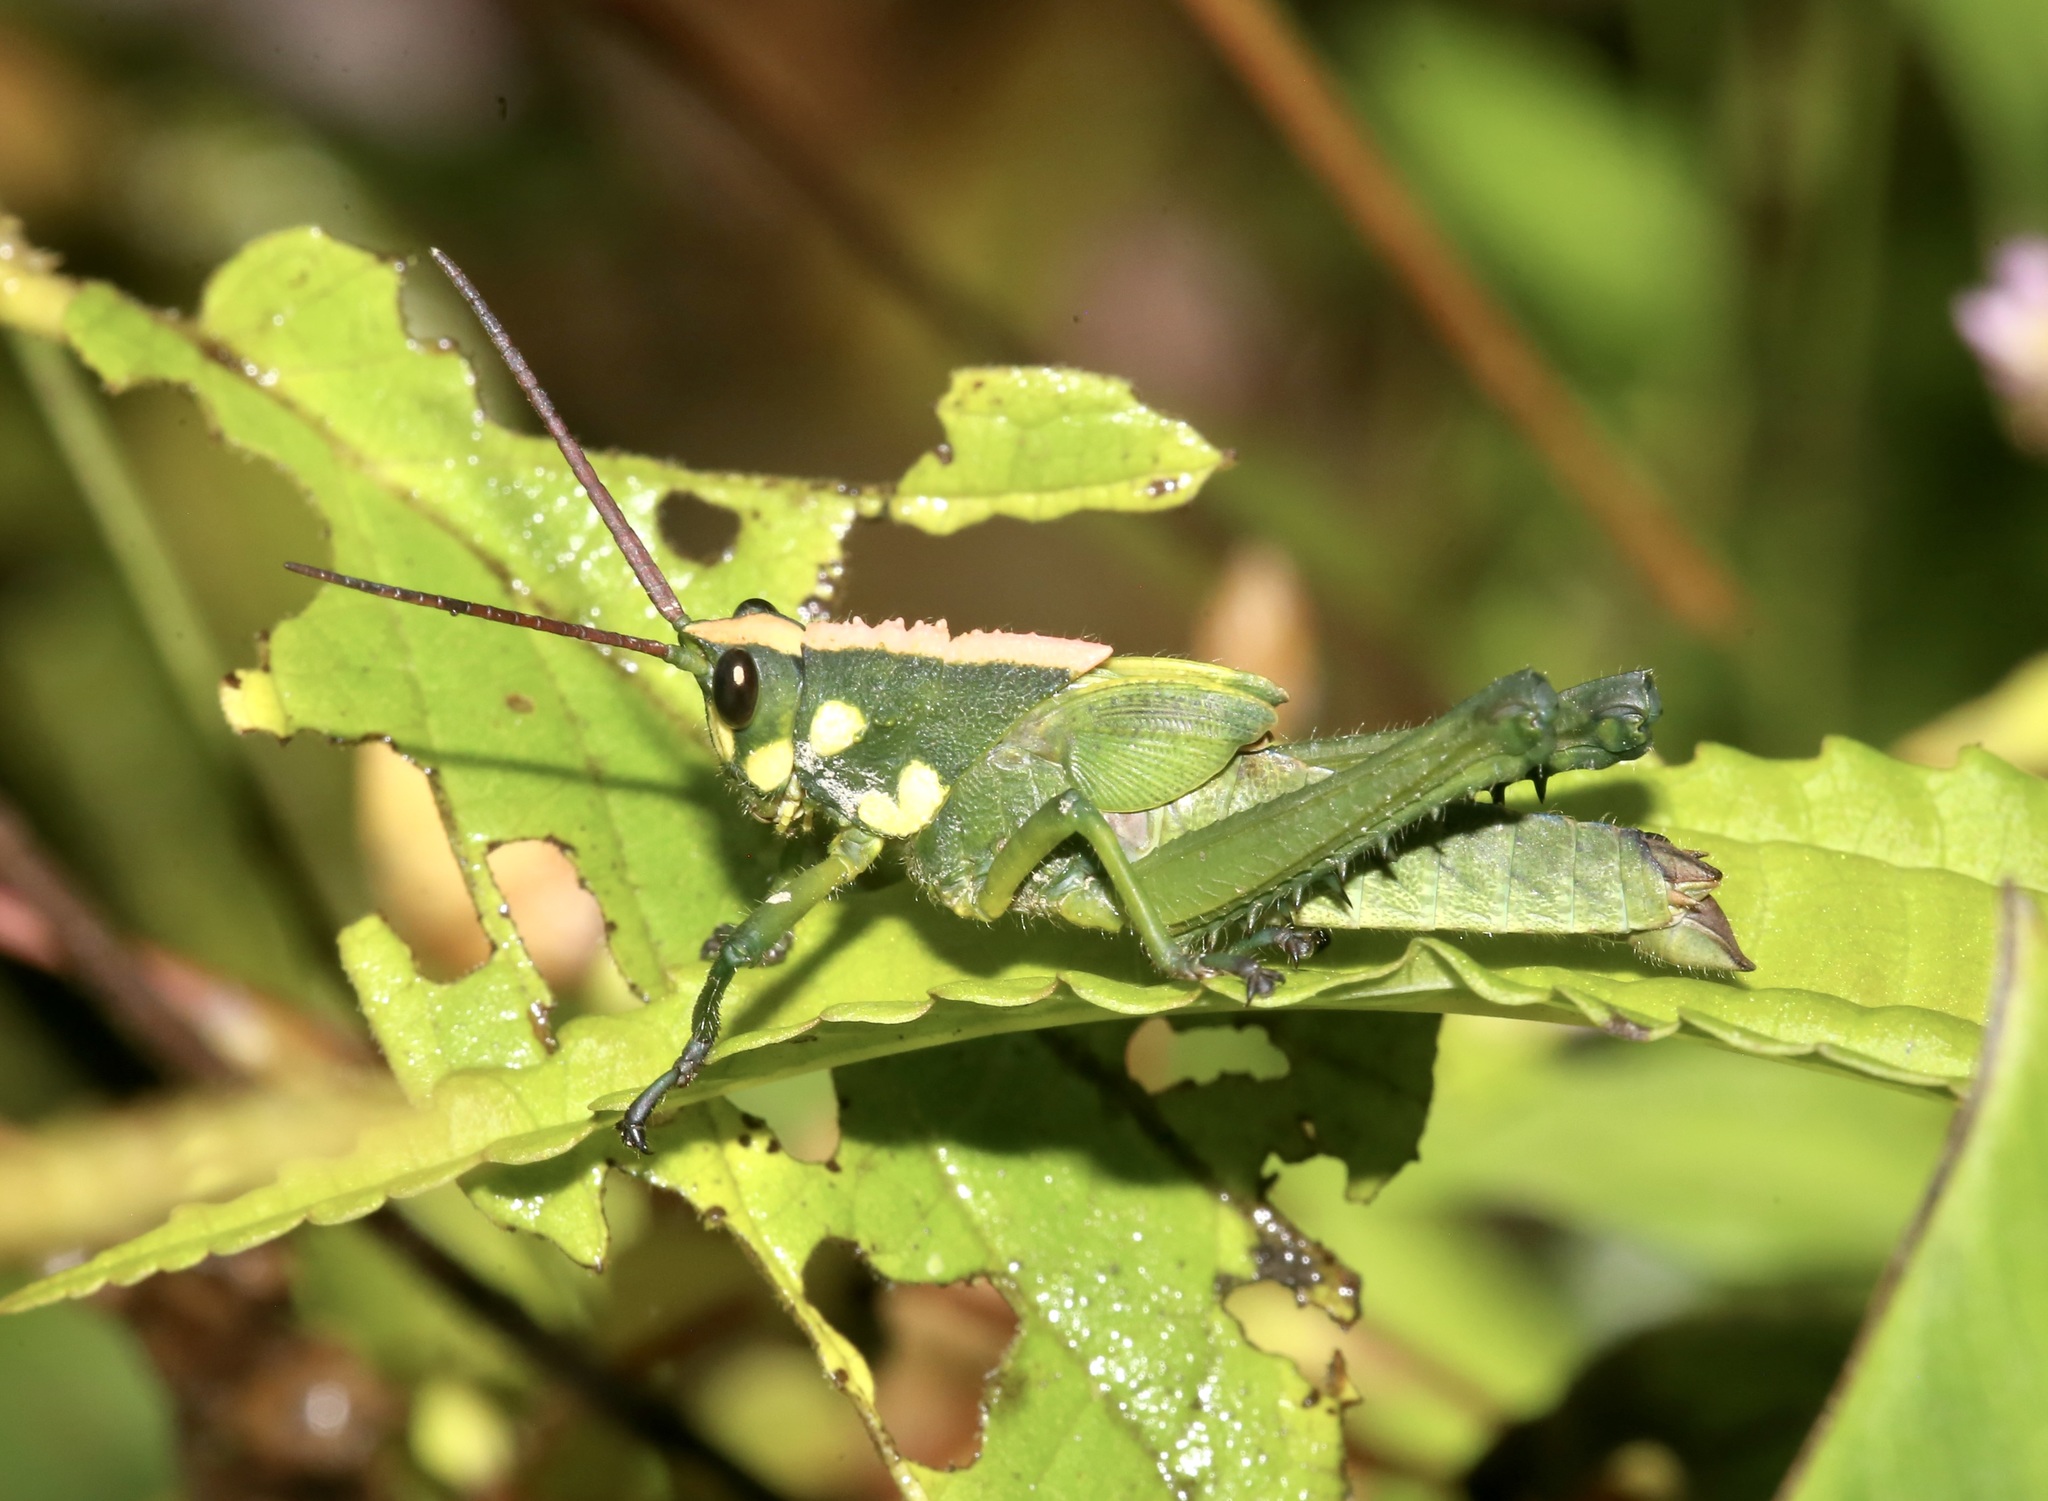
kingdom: Animalia
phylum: Arthropoda
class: Insecta
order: Orthoptera
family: Romaleidae
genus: Agriacris
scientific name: Agriacris magnifica
